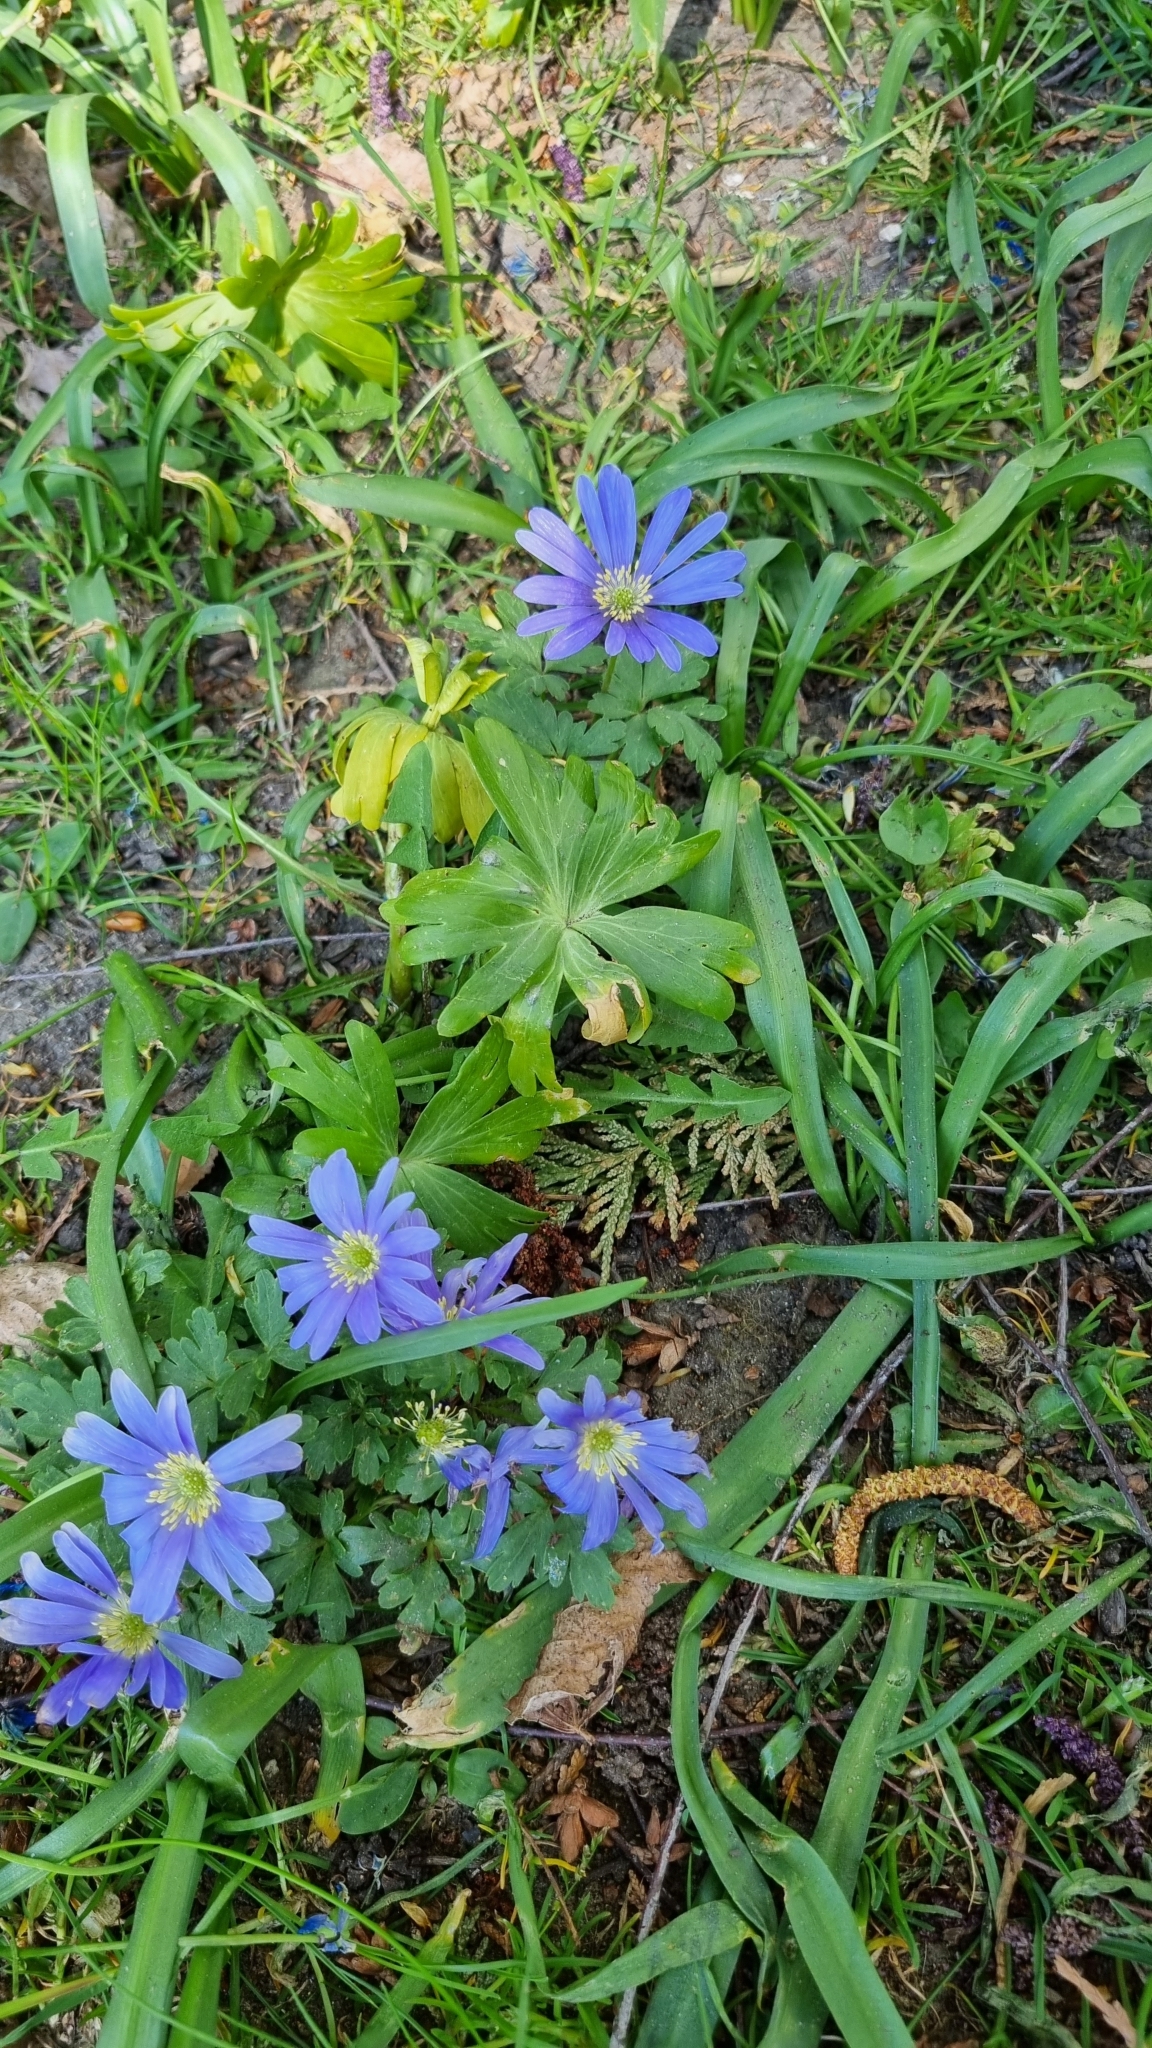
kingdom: Plantae
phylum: Tracheophyta
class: Magnoliopsida
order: Ranunculales
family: Ranunculaceae
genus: Anemone
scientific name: Anemone blanda
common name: Balkan anemone
